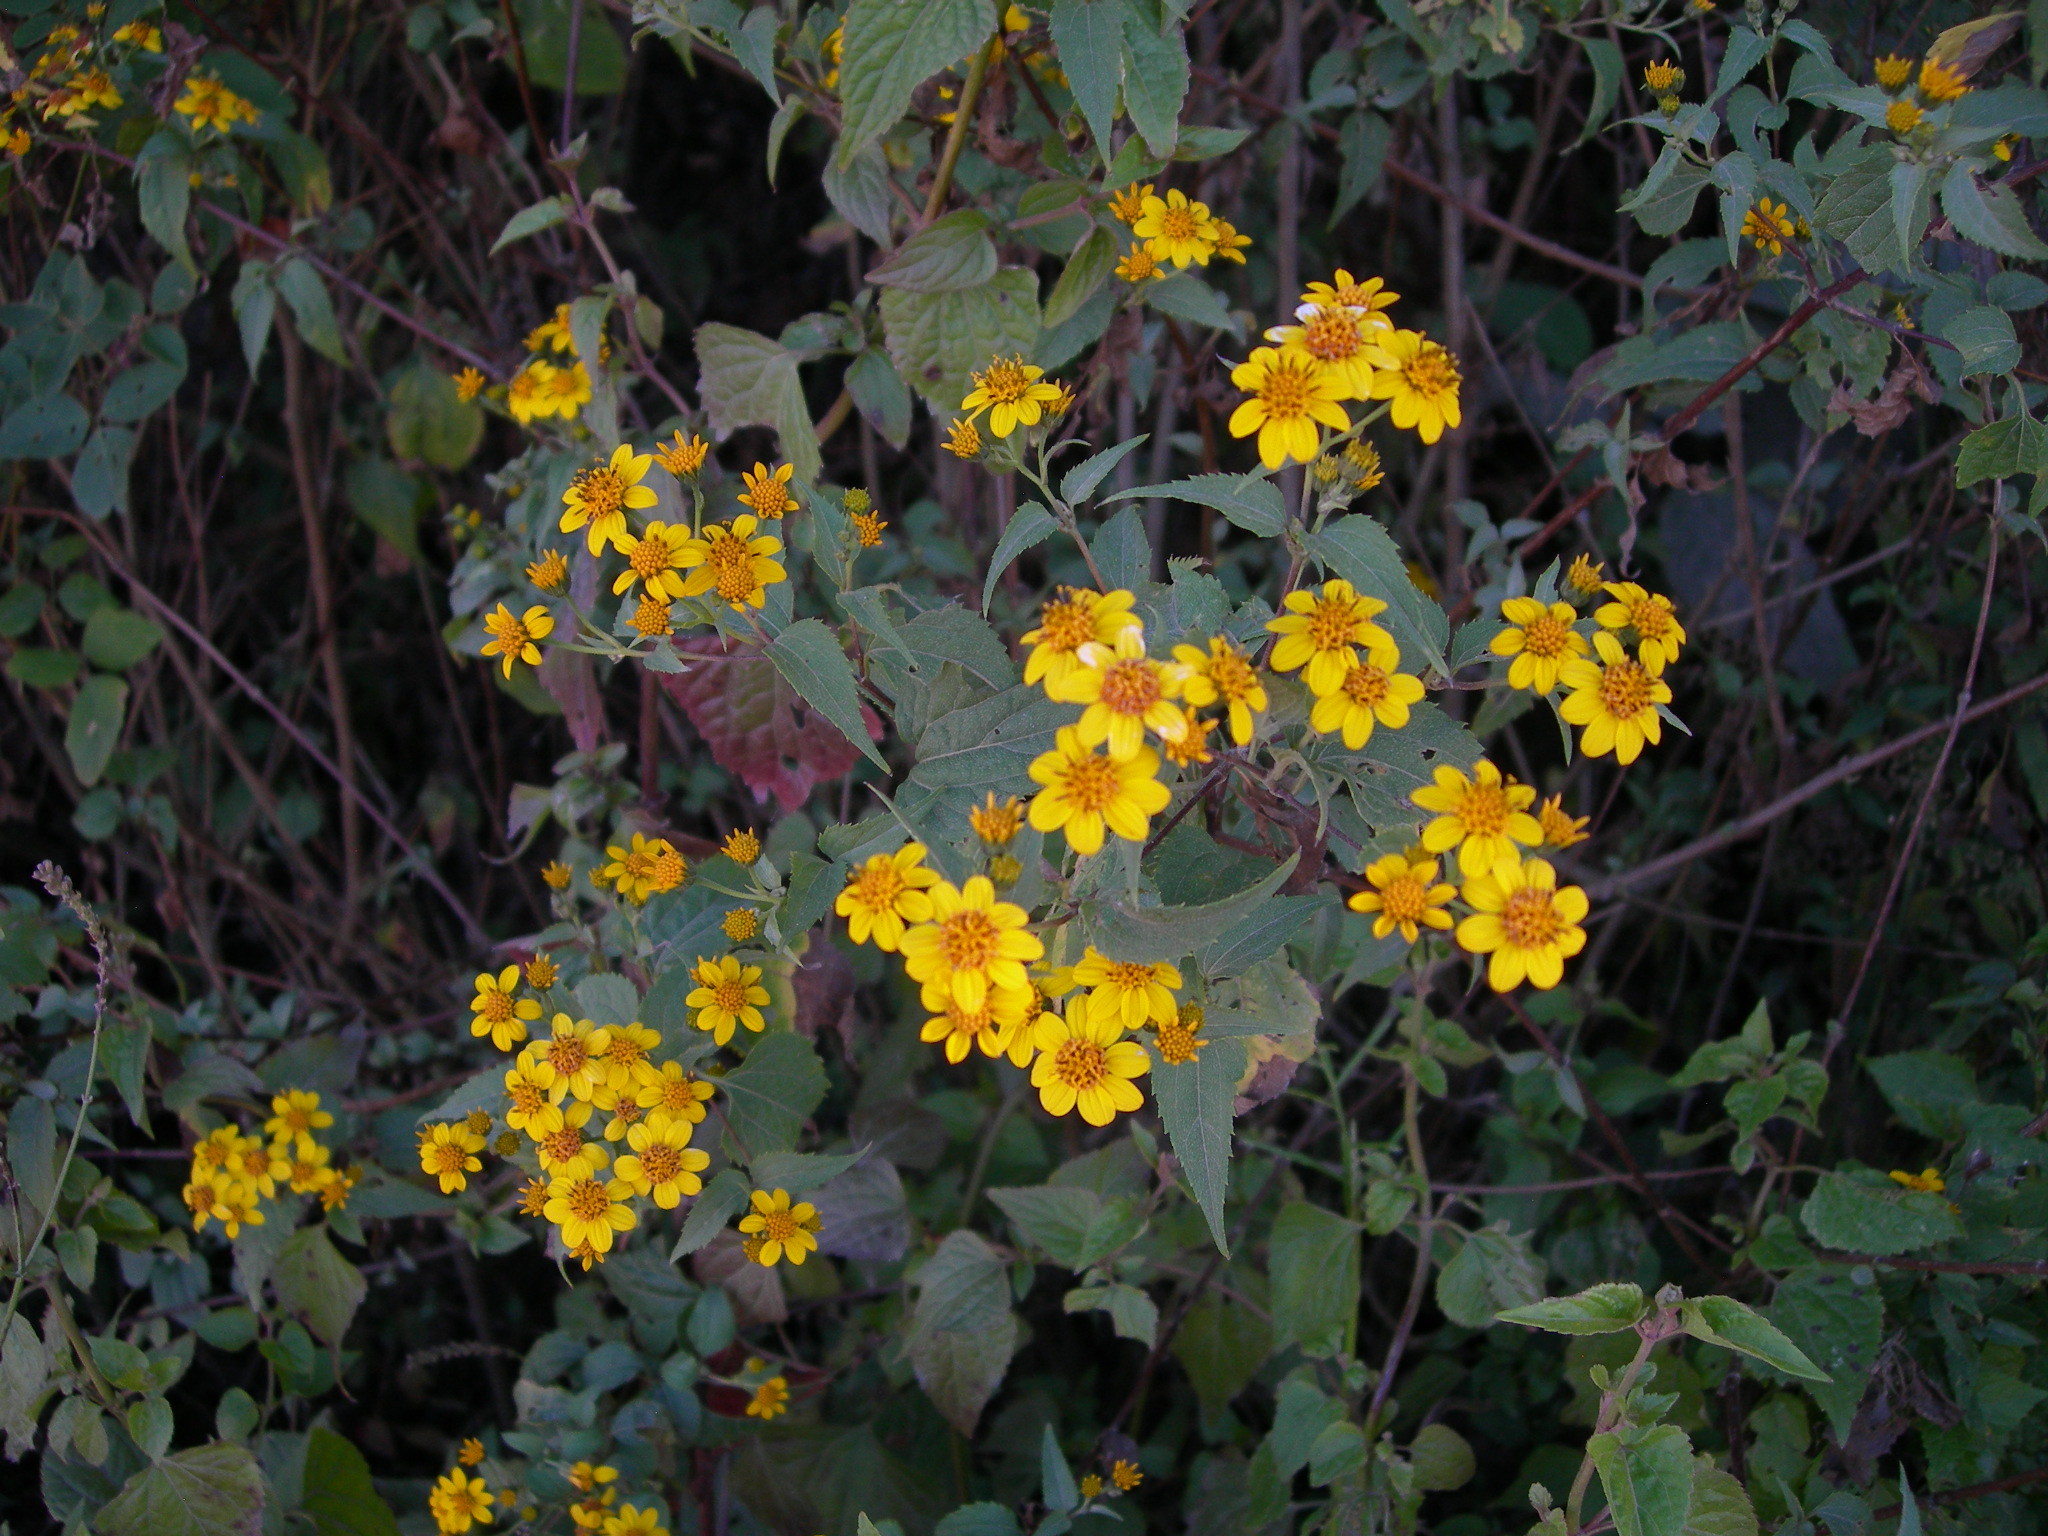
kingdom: Plantae
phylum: Tracheophyta
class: Magnoliopsida
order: Asterales
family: Asteraceae
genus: Zexmenia
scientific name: Zexmenia serrata
